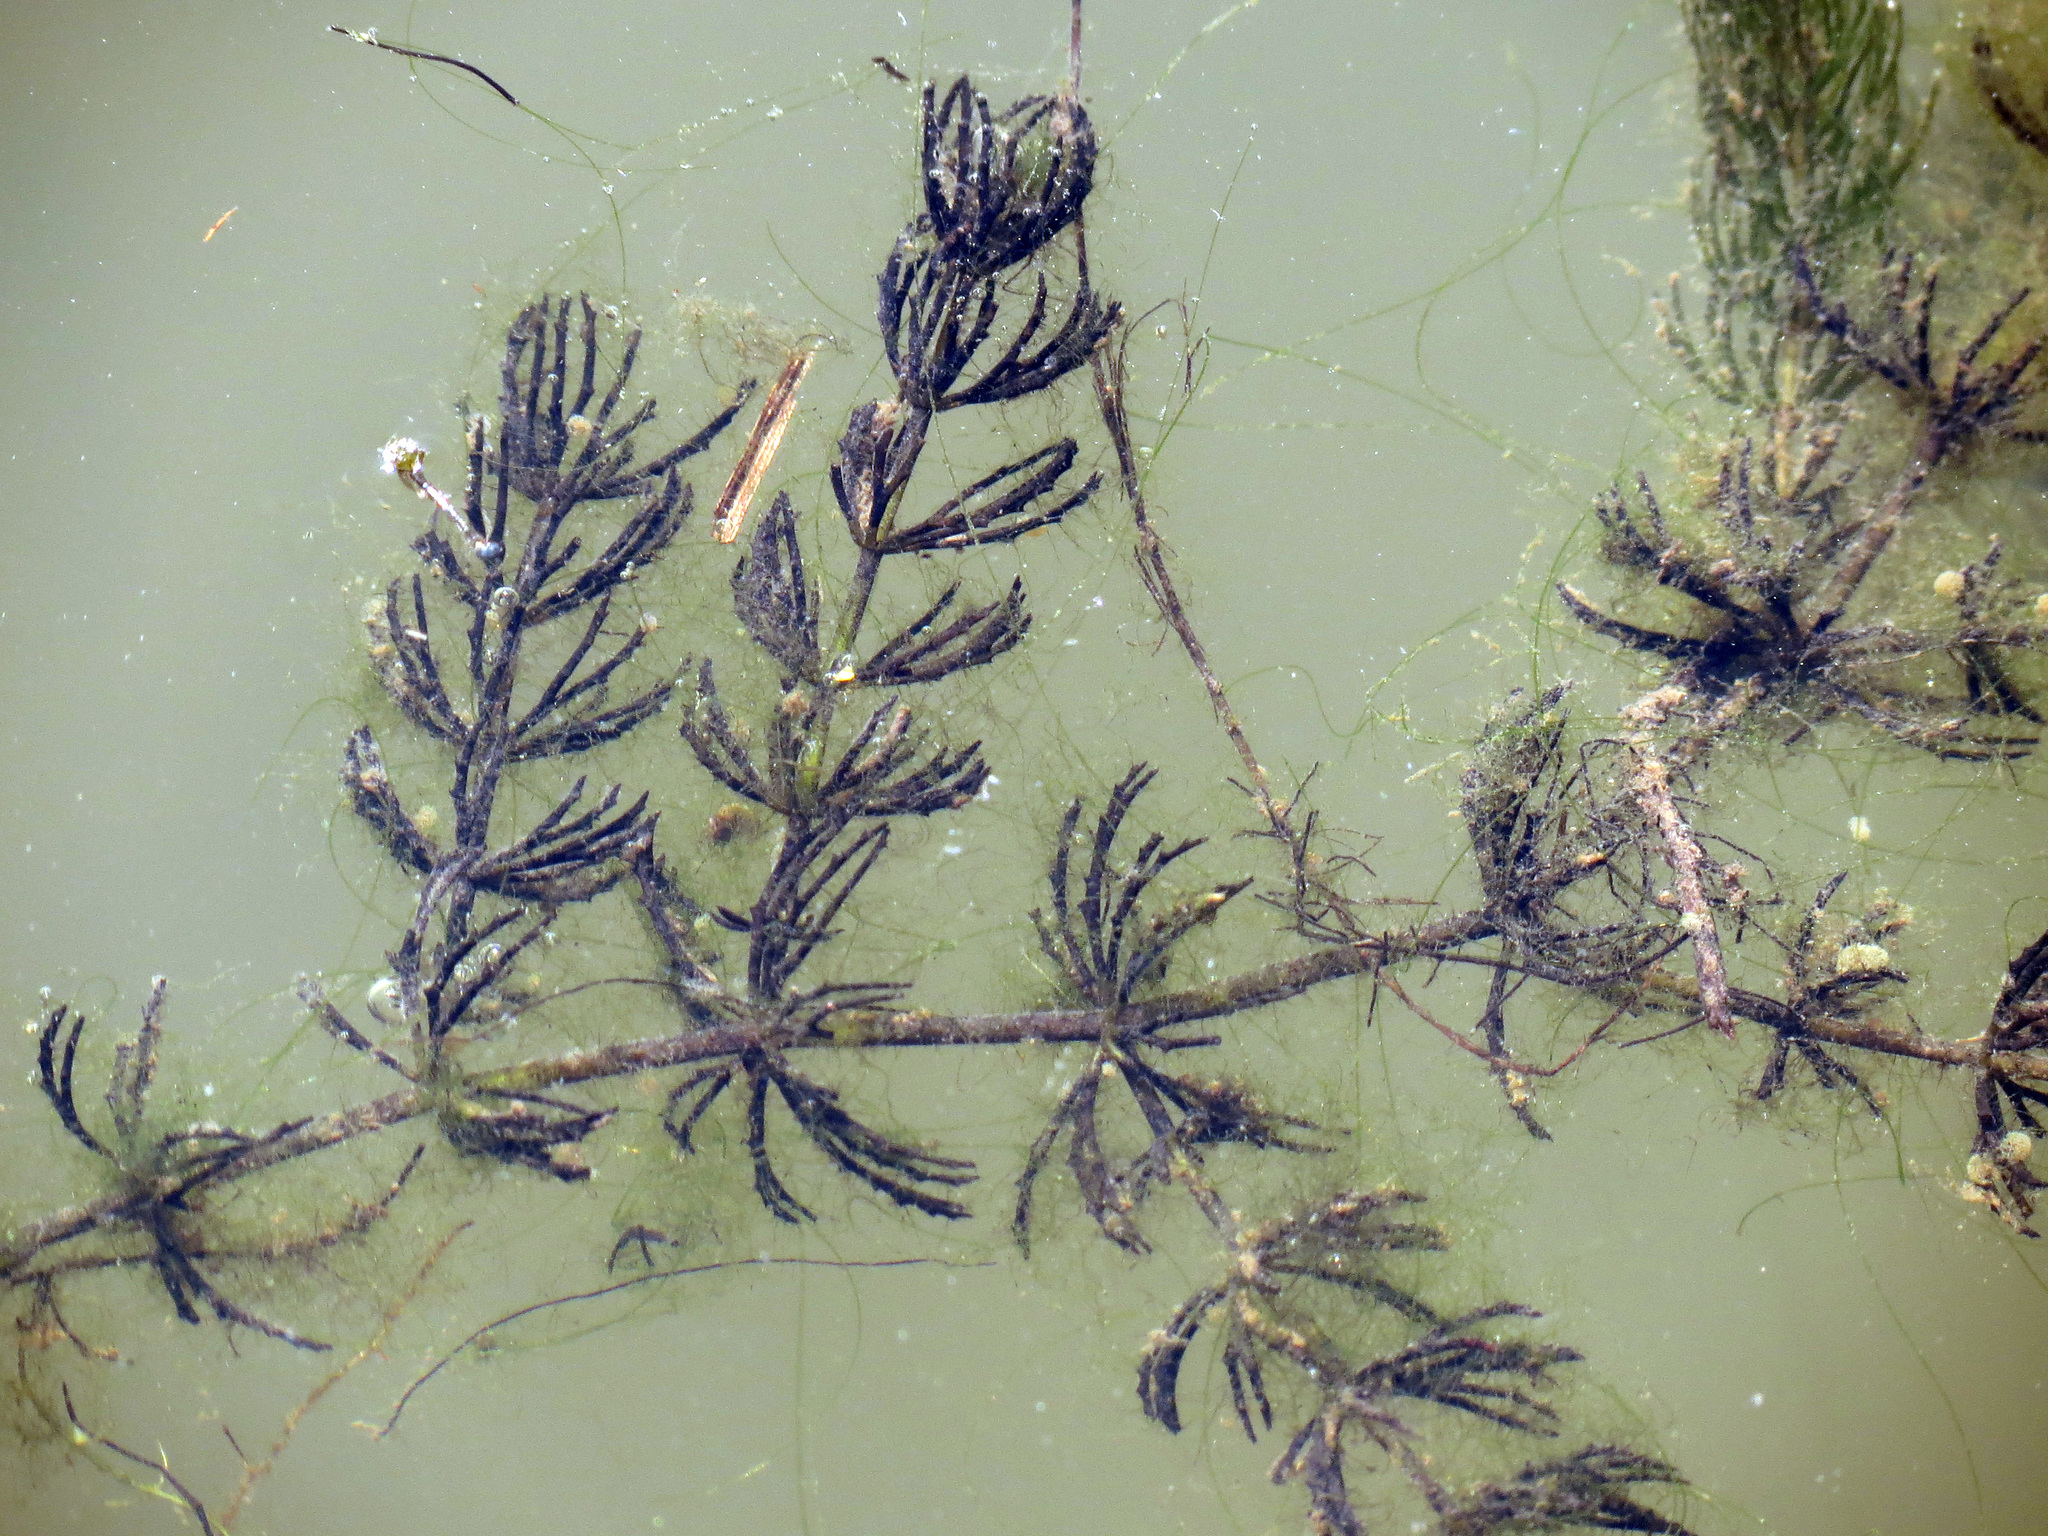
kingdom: Plantae
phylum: Tracheophyta
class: Magnoliopsida
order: Ceratophyllales
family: Ceratophyllaceae
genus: Ceratophyllum
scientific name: Ceratophyllum demersum
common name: Rigid hornwort
